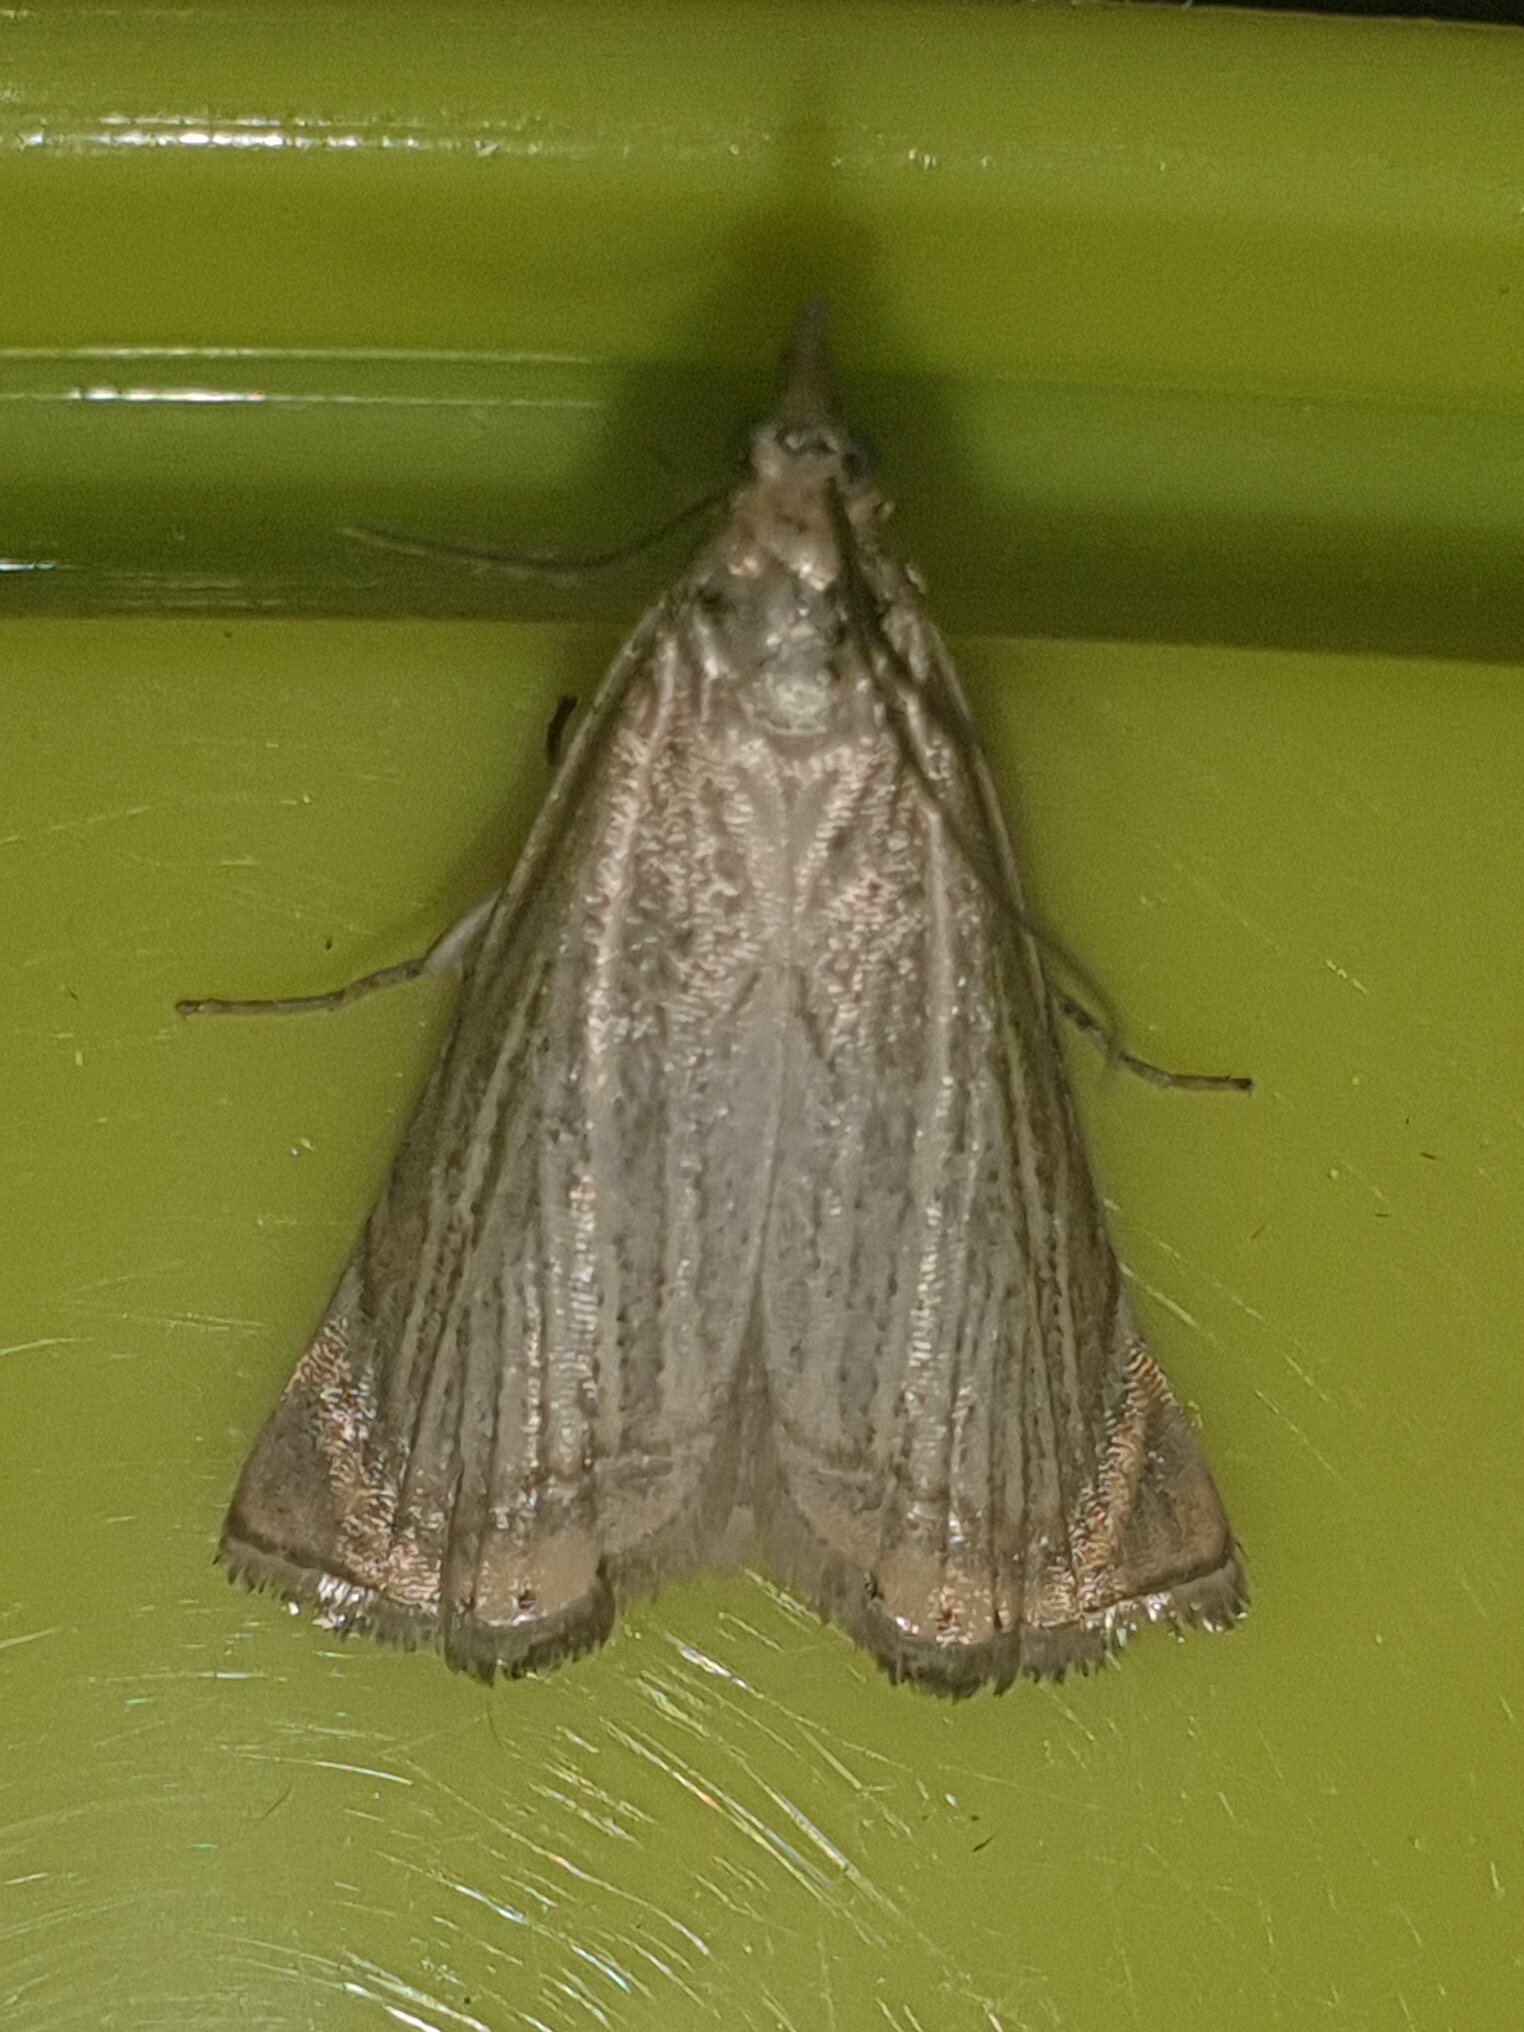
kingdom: Animalia
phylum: Arthropoda
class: Insecta
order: Lepidoptera
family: Crambidae
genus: Chrysoteuchia
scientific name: Chrysoteuchia culmella
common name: Garden grass-veneer
